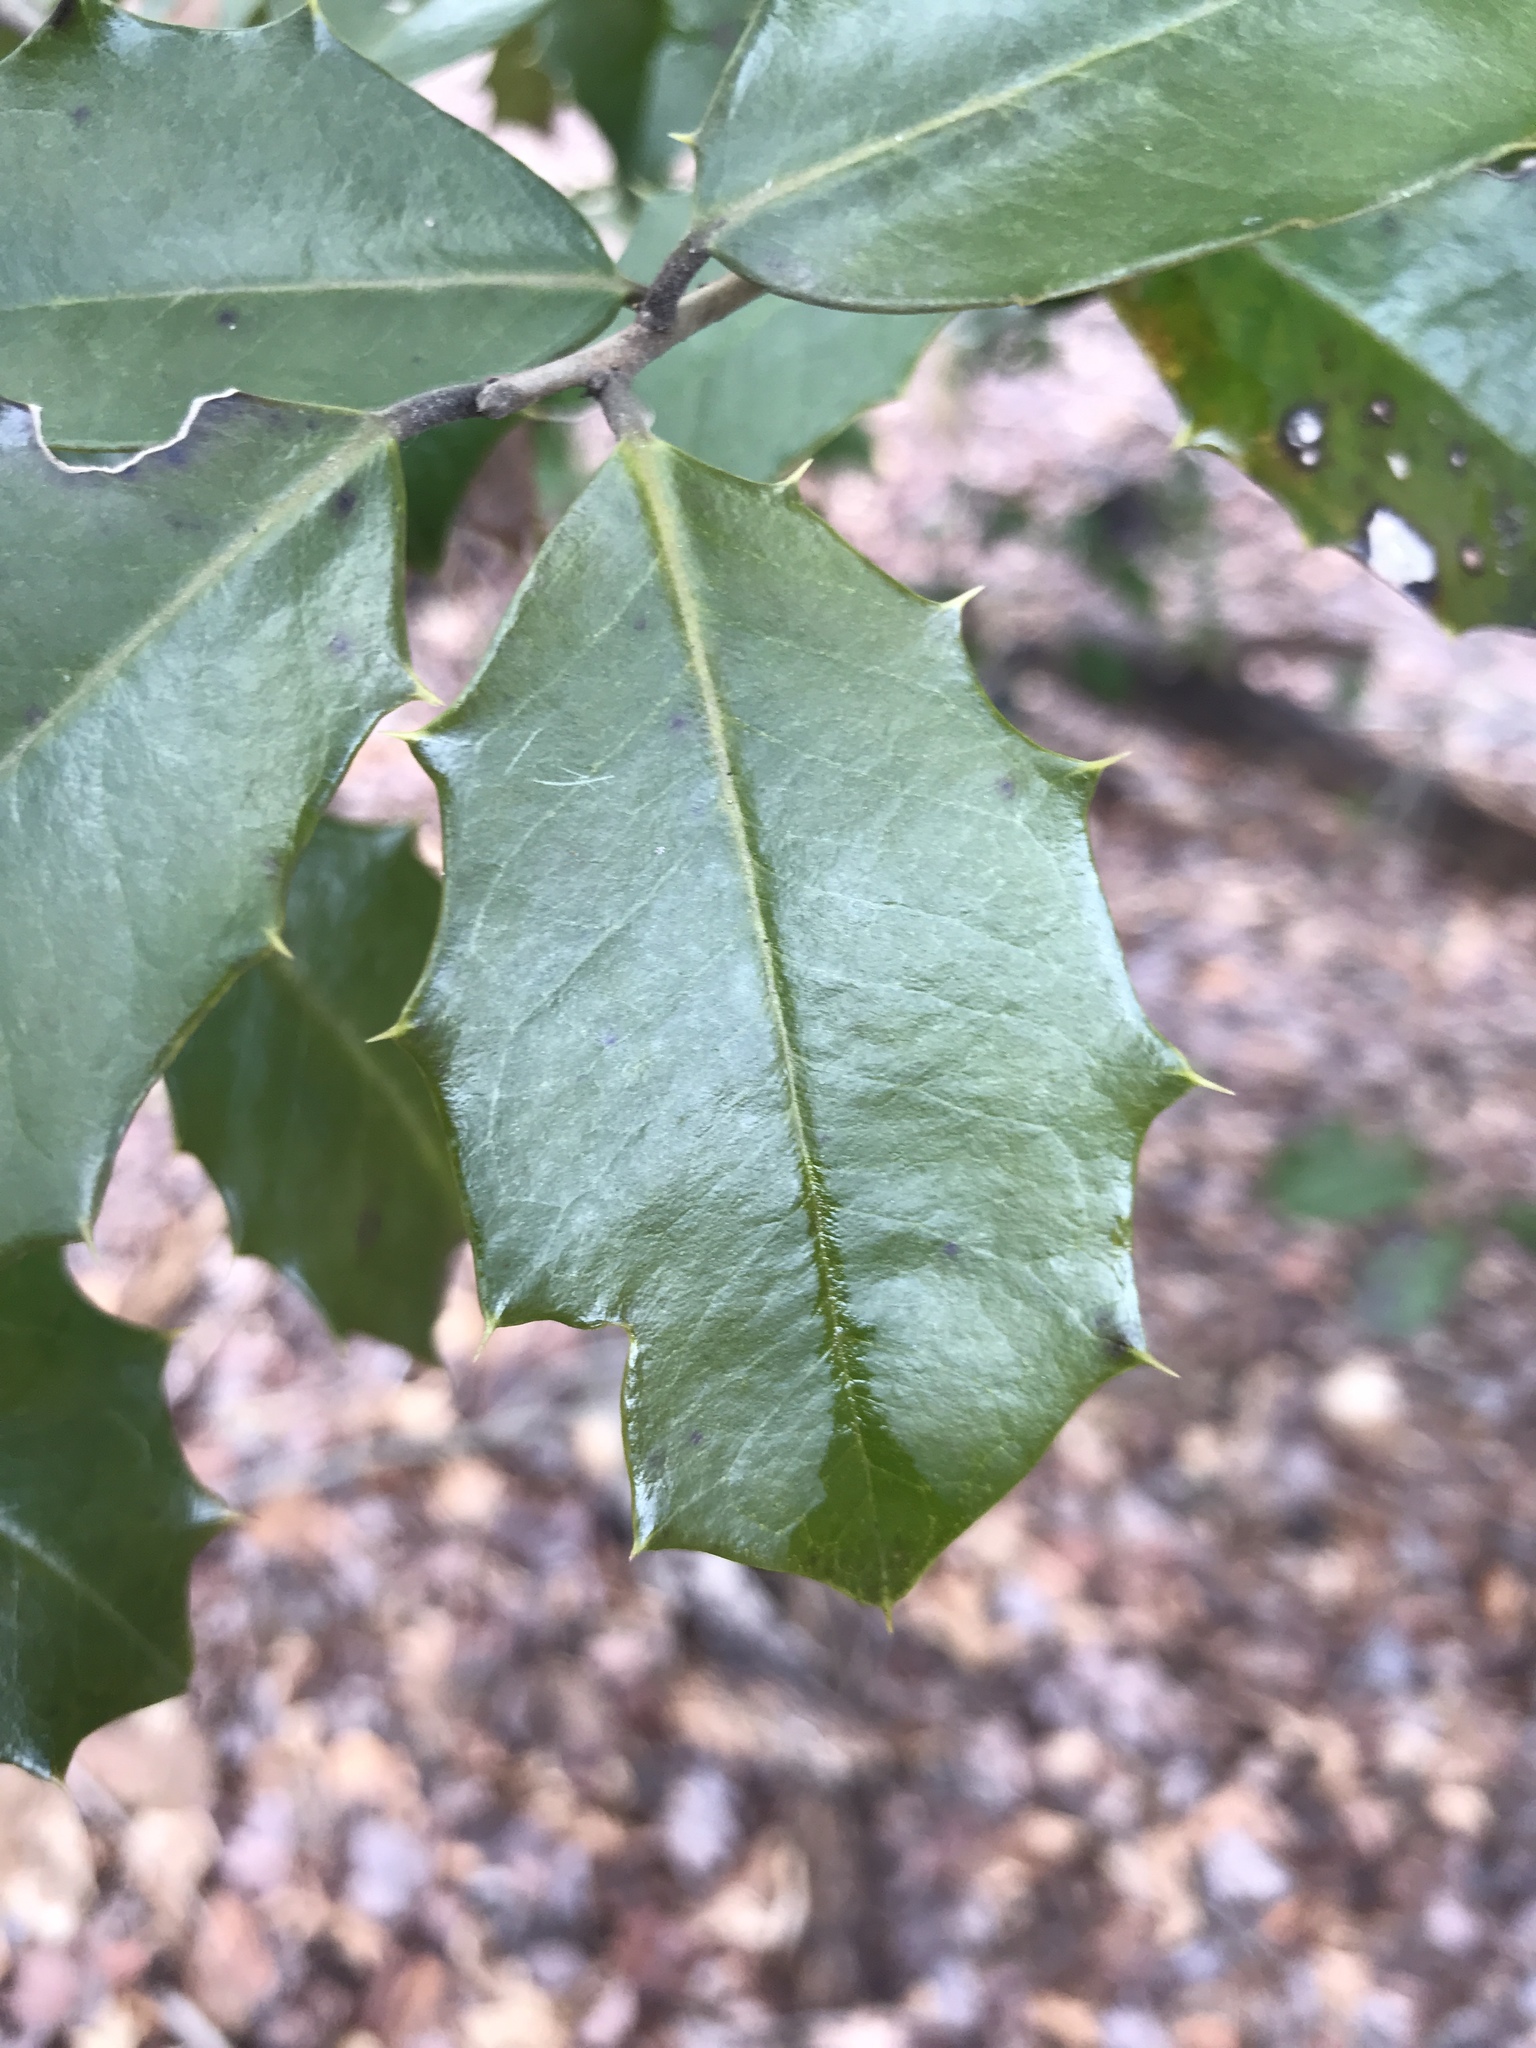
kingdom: Plantae
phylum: Tracheophyta
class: Magnoliopsida
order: Aquifoliales
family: Aquifoliaceae
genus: Ilex
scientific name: Ilex opaca
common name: American holly
